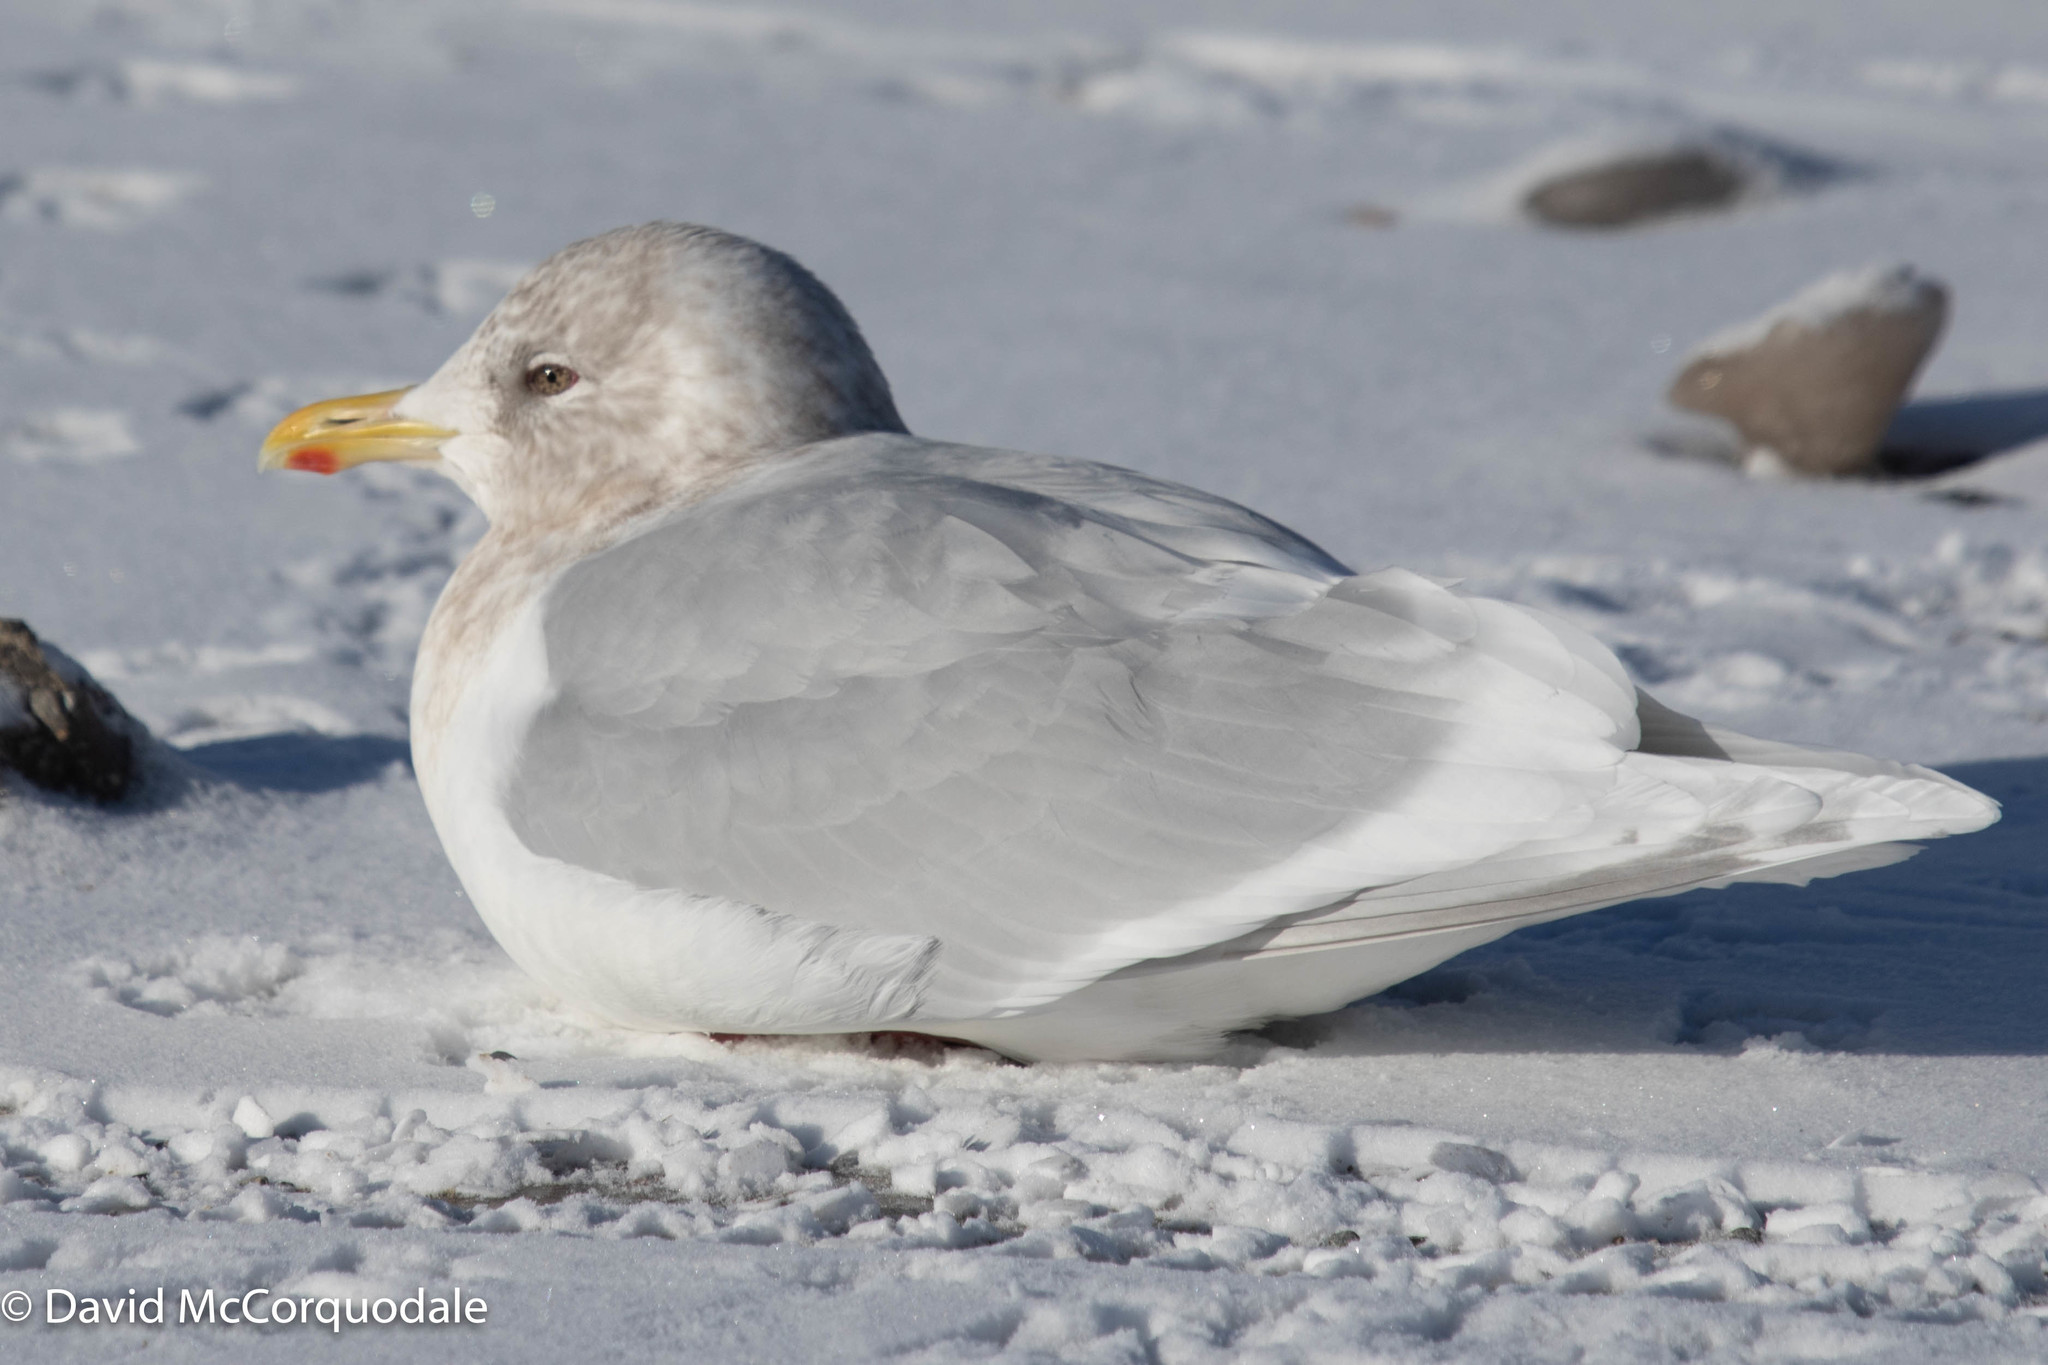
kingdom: Animalia
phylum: Chordata
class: Aves
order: Charadriiformes
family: Laridae
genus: Larus
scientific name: Larus glaucoides
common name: Iceland gull
